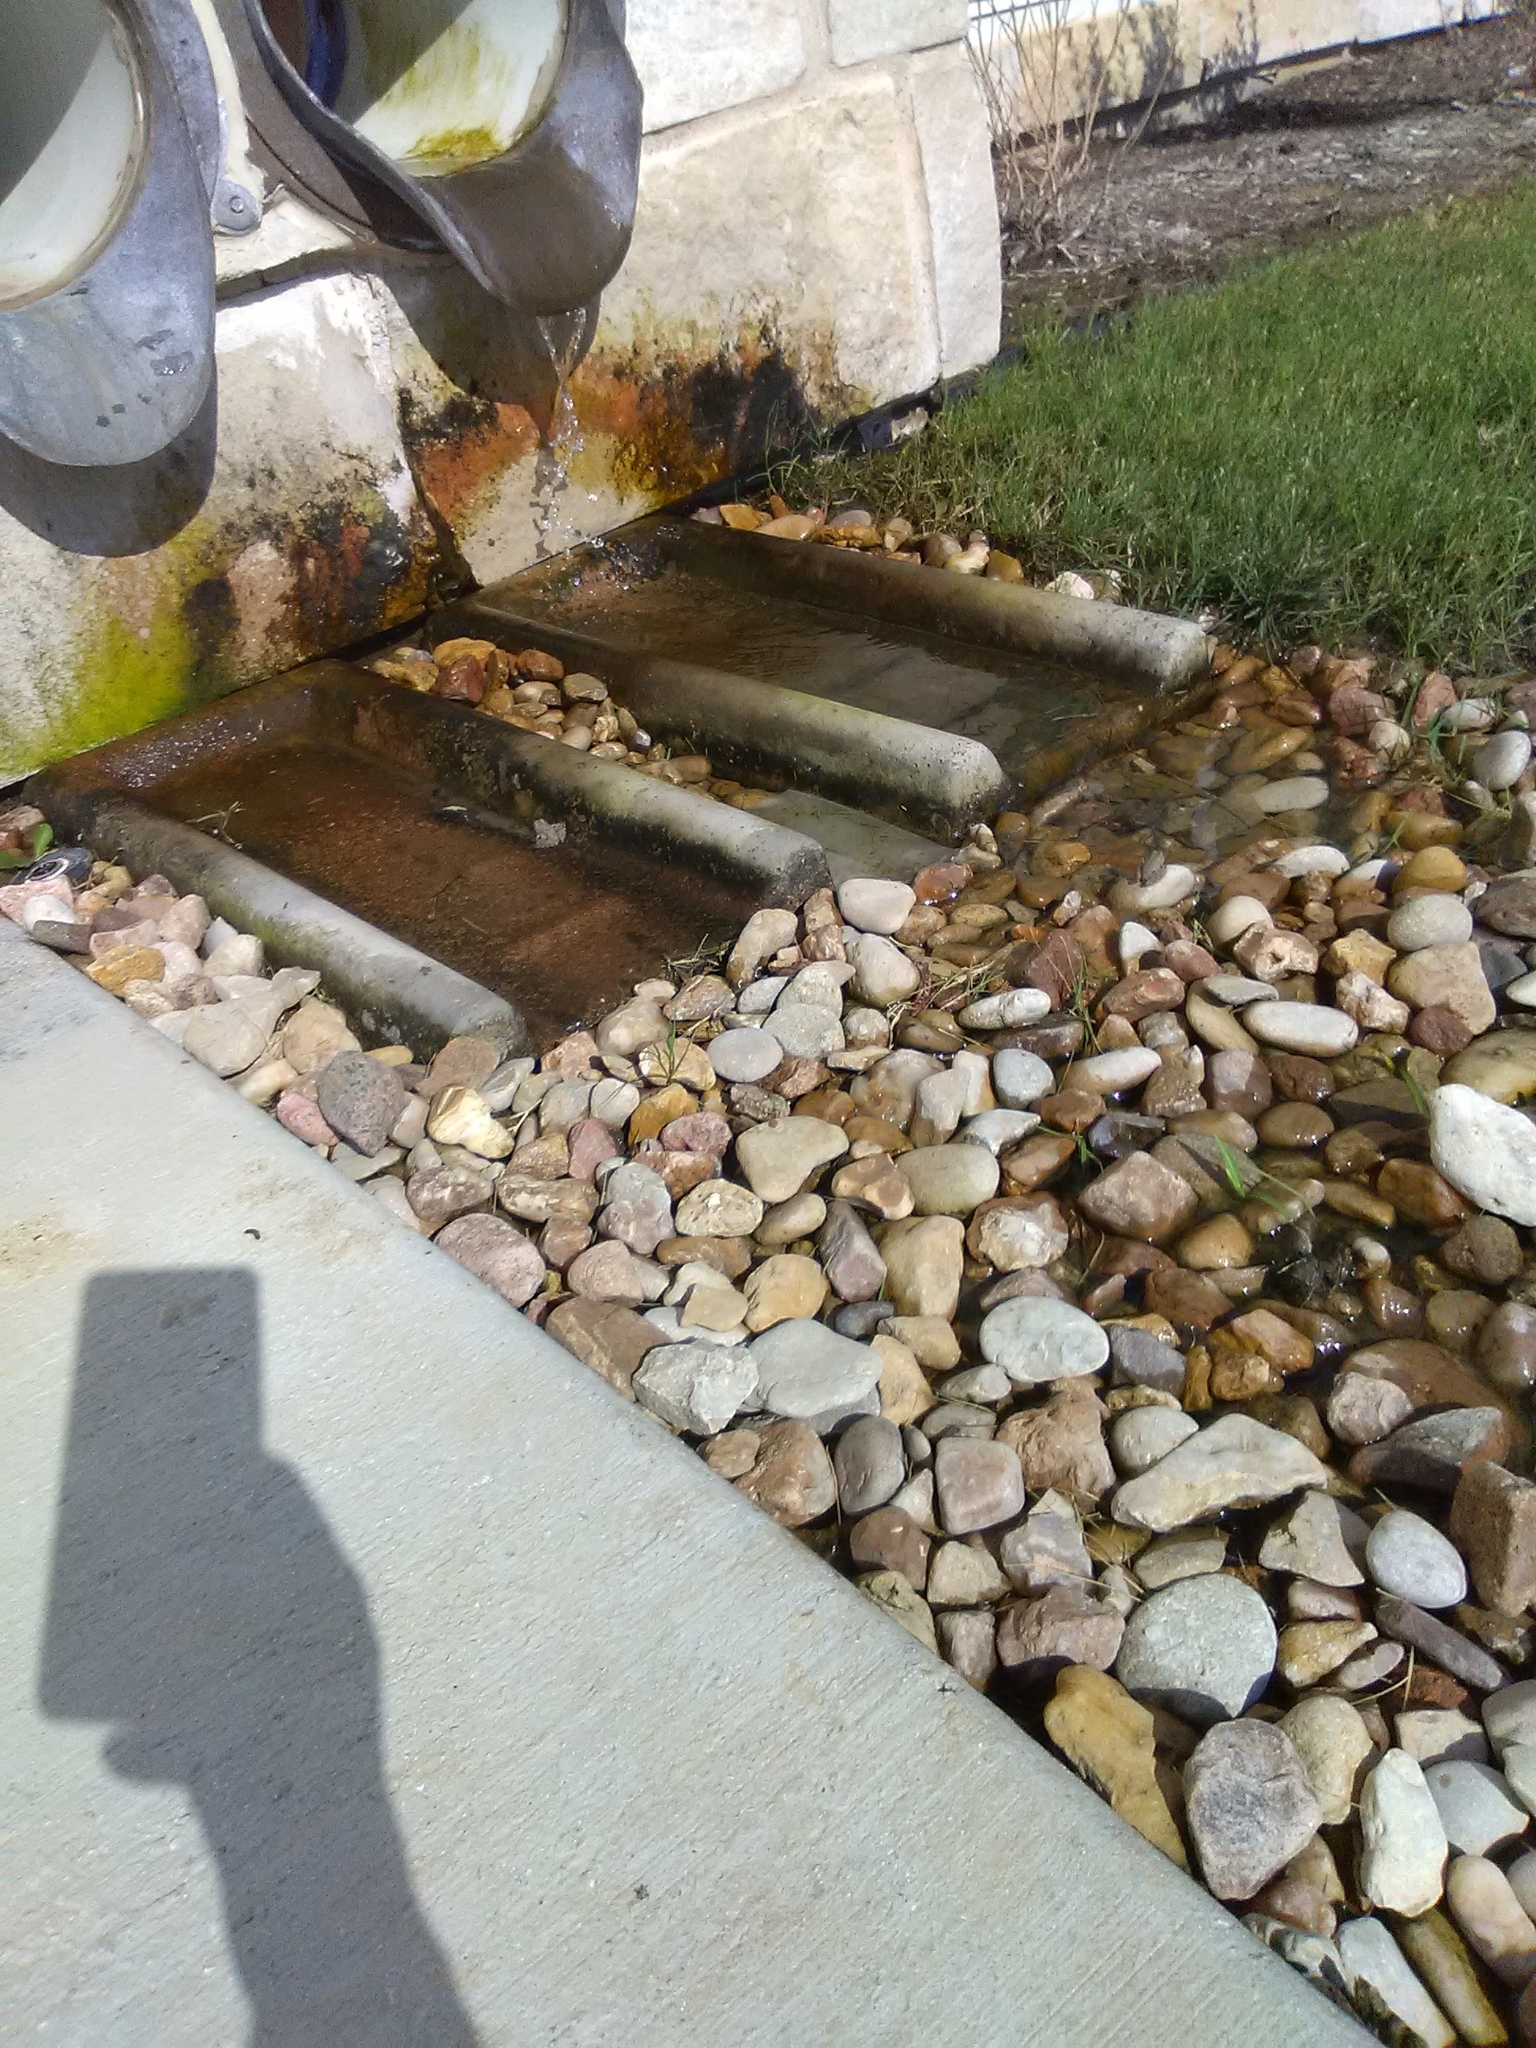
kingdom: Animalia
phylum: Chordata
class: Amphibia
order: Anura
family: Hylidae
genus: Acris
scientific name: Acris blanchardi
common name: Blanchard's cricket frog
